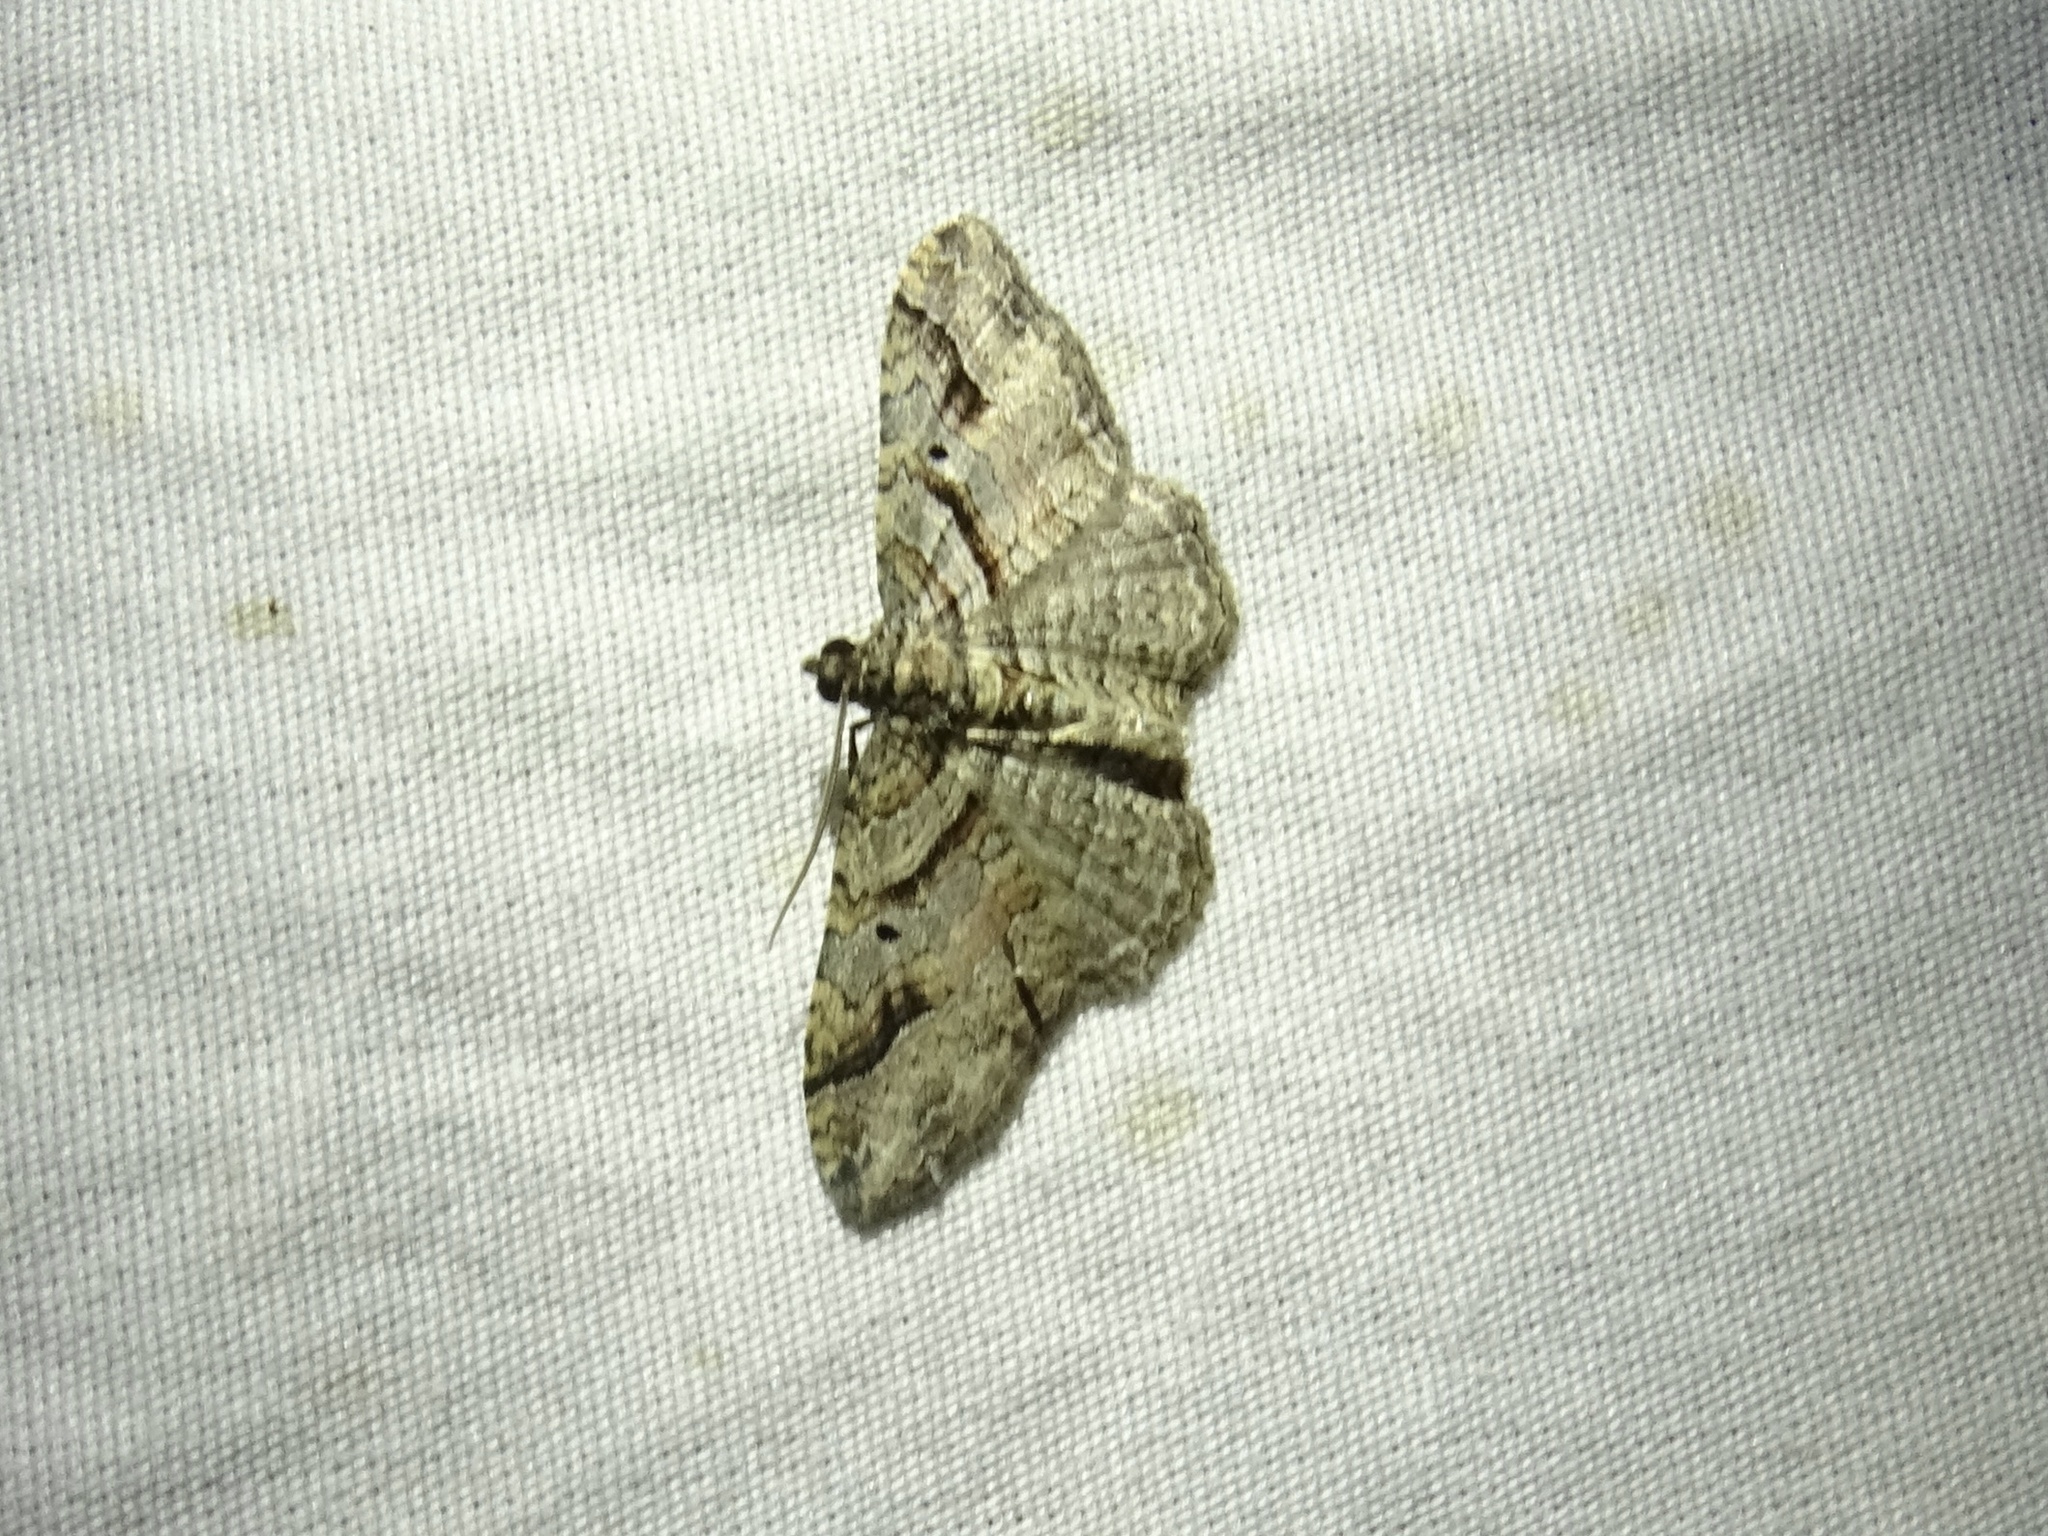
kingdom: Animalia
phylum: Arthropoda
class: Insecta
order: Lepidoptera
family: Geometridae
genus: Costaconvexa
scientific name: Costaconvexa centrostrigaria
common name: Bent-line carpet
